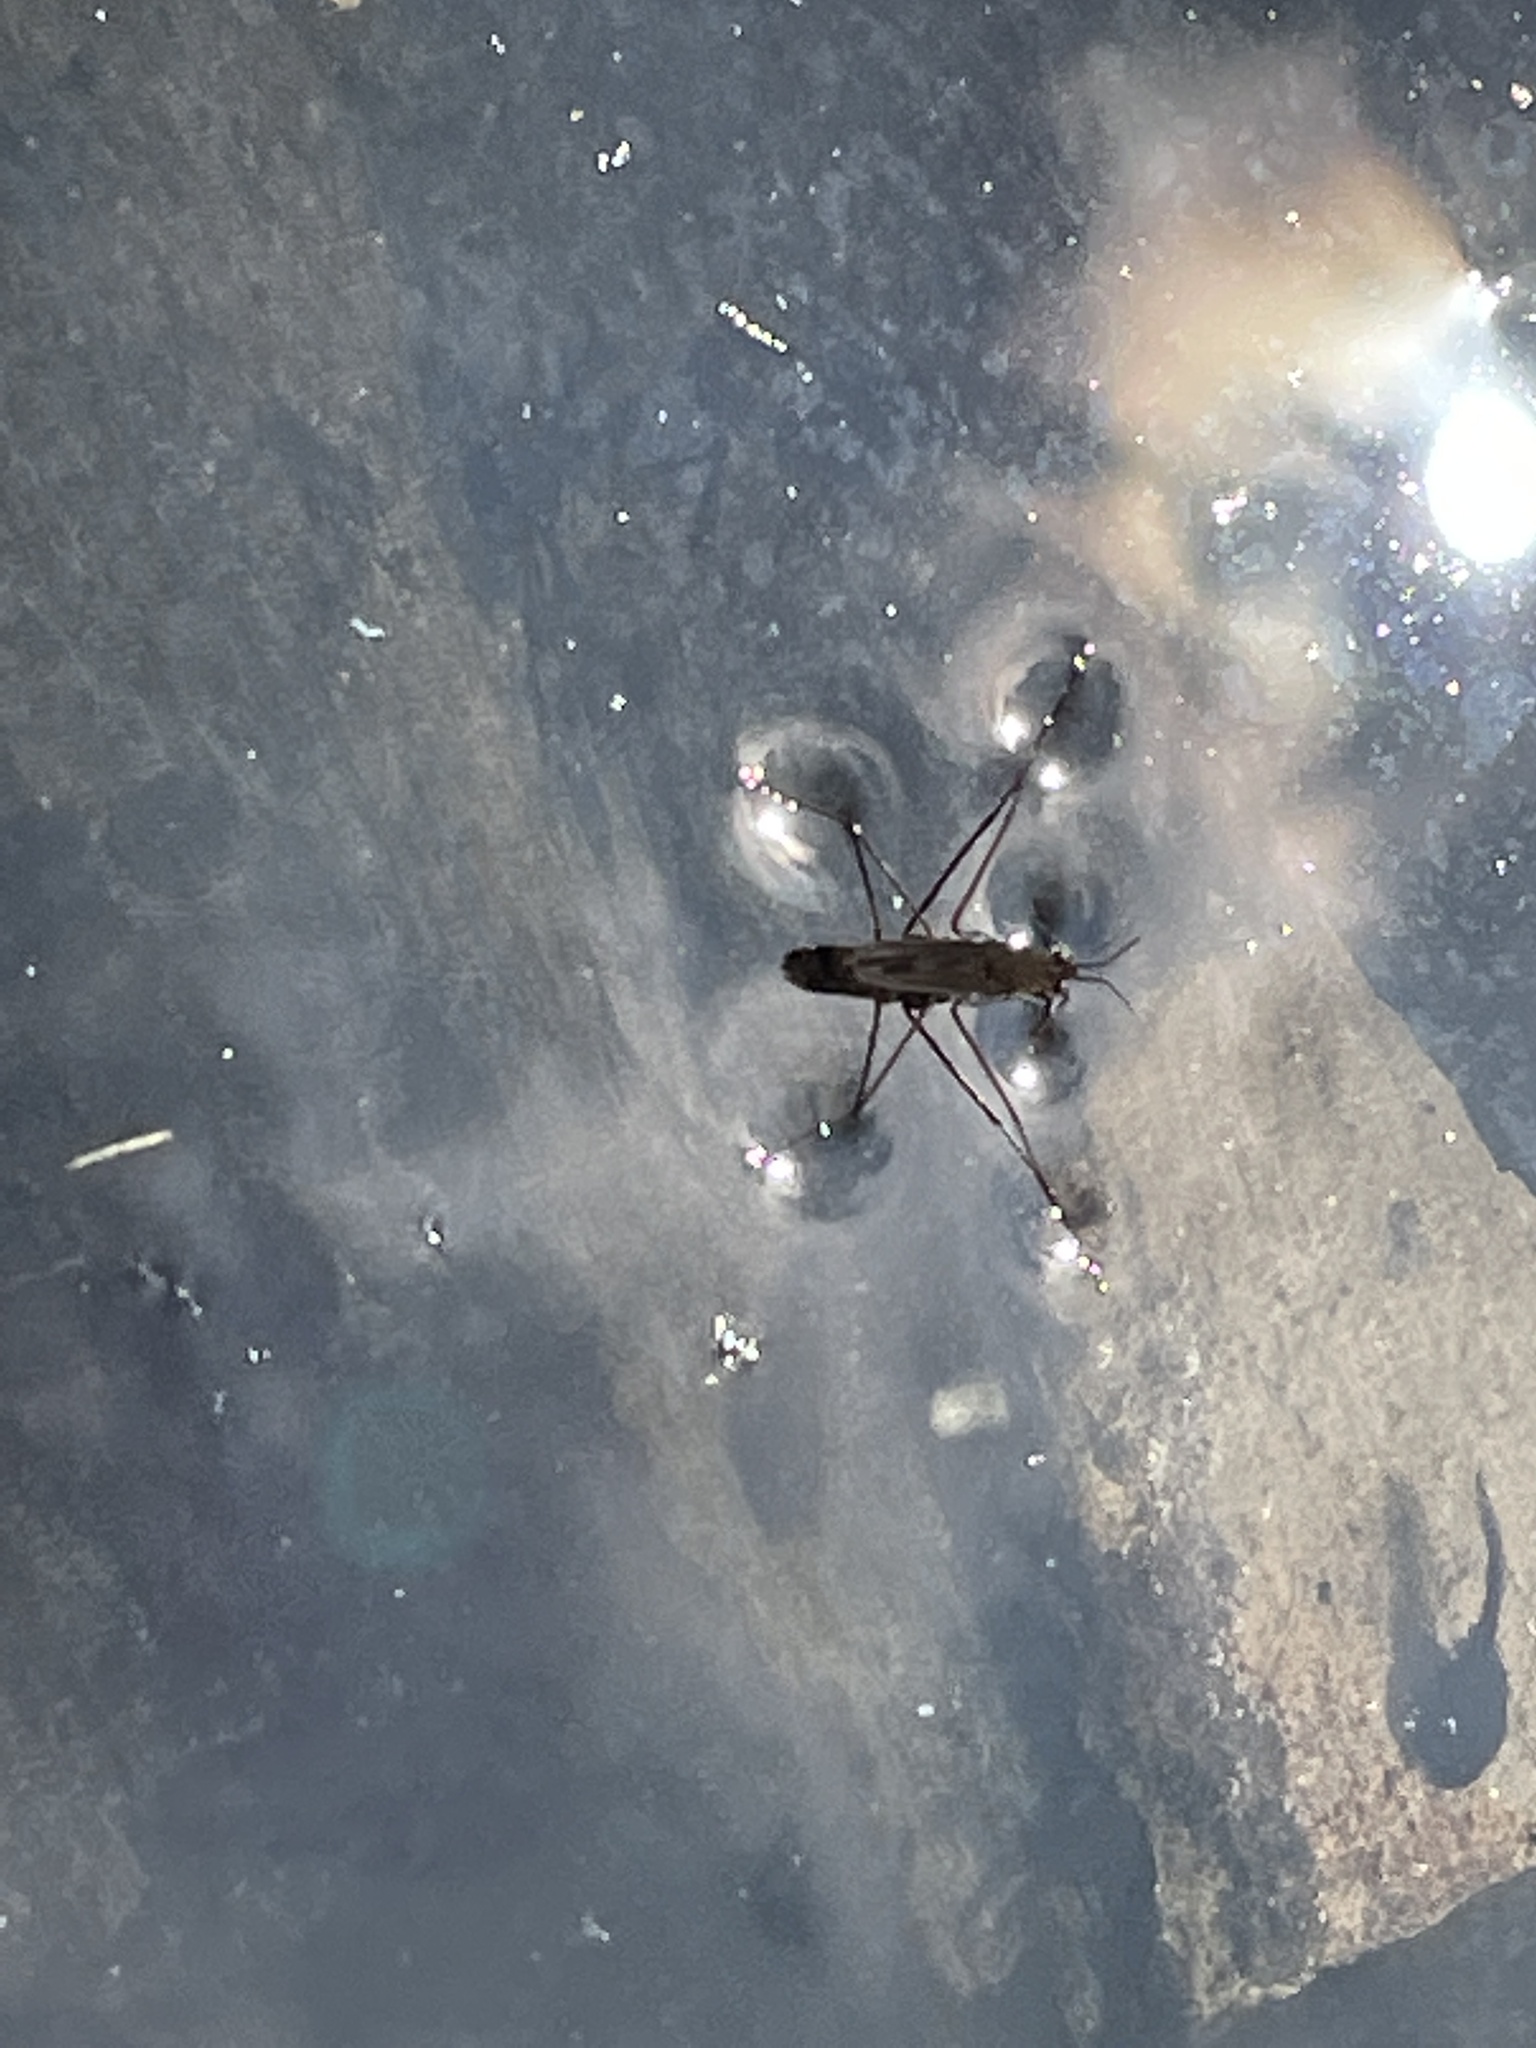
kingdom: Animalia
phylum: Arthropoda
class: Insecta
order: Hemiptera
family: Gerridae
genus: Gerris
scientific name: Gerris
